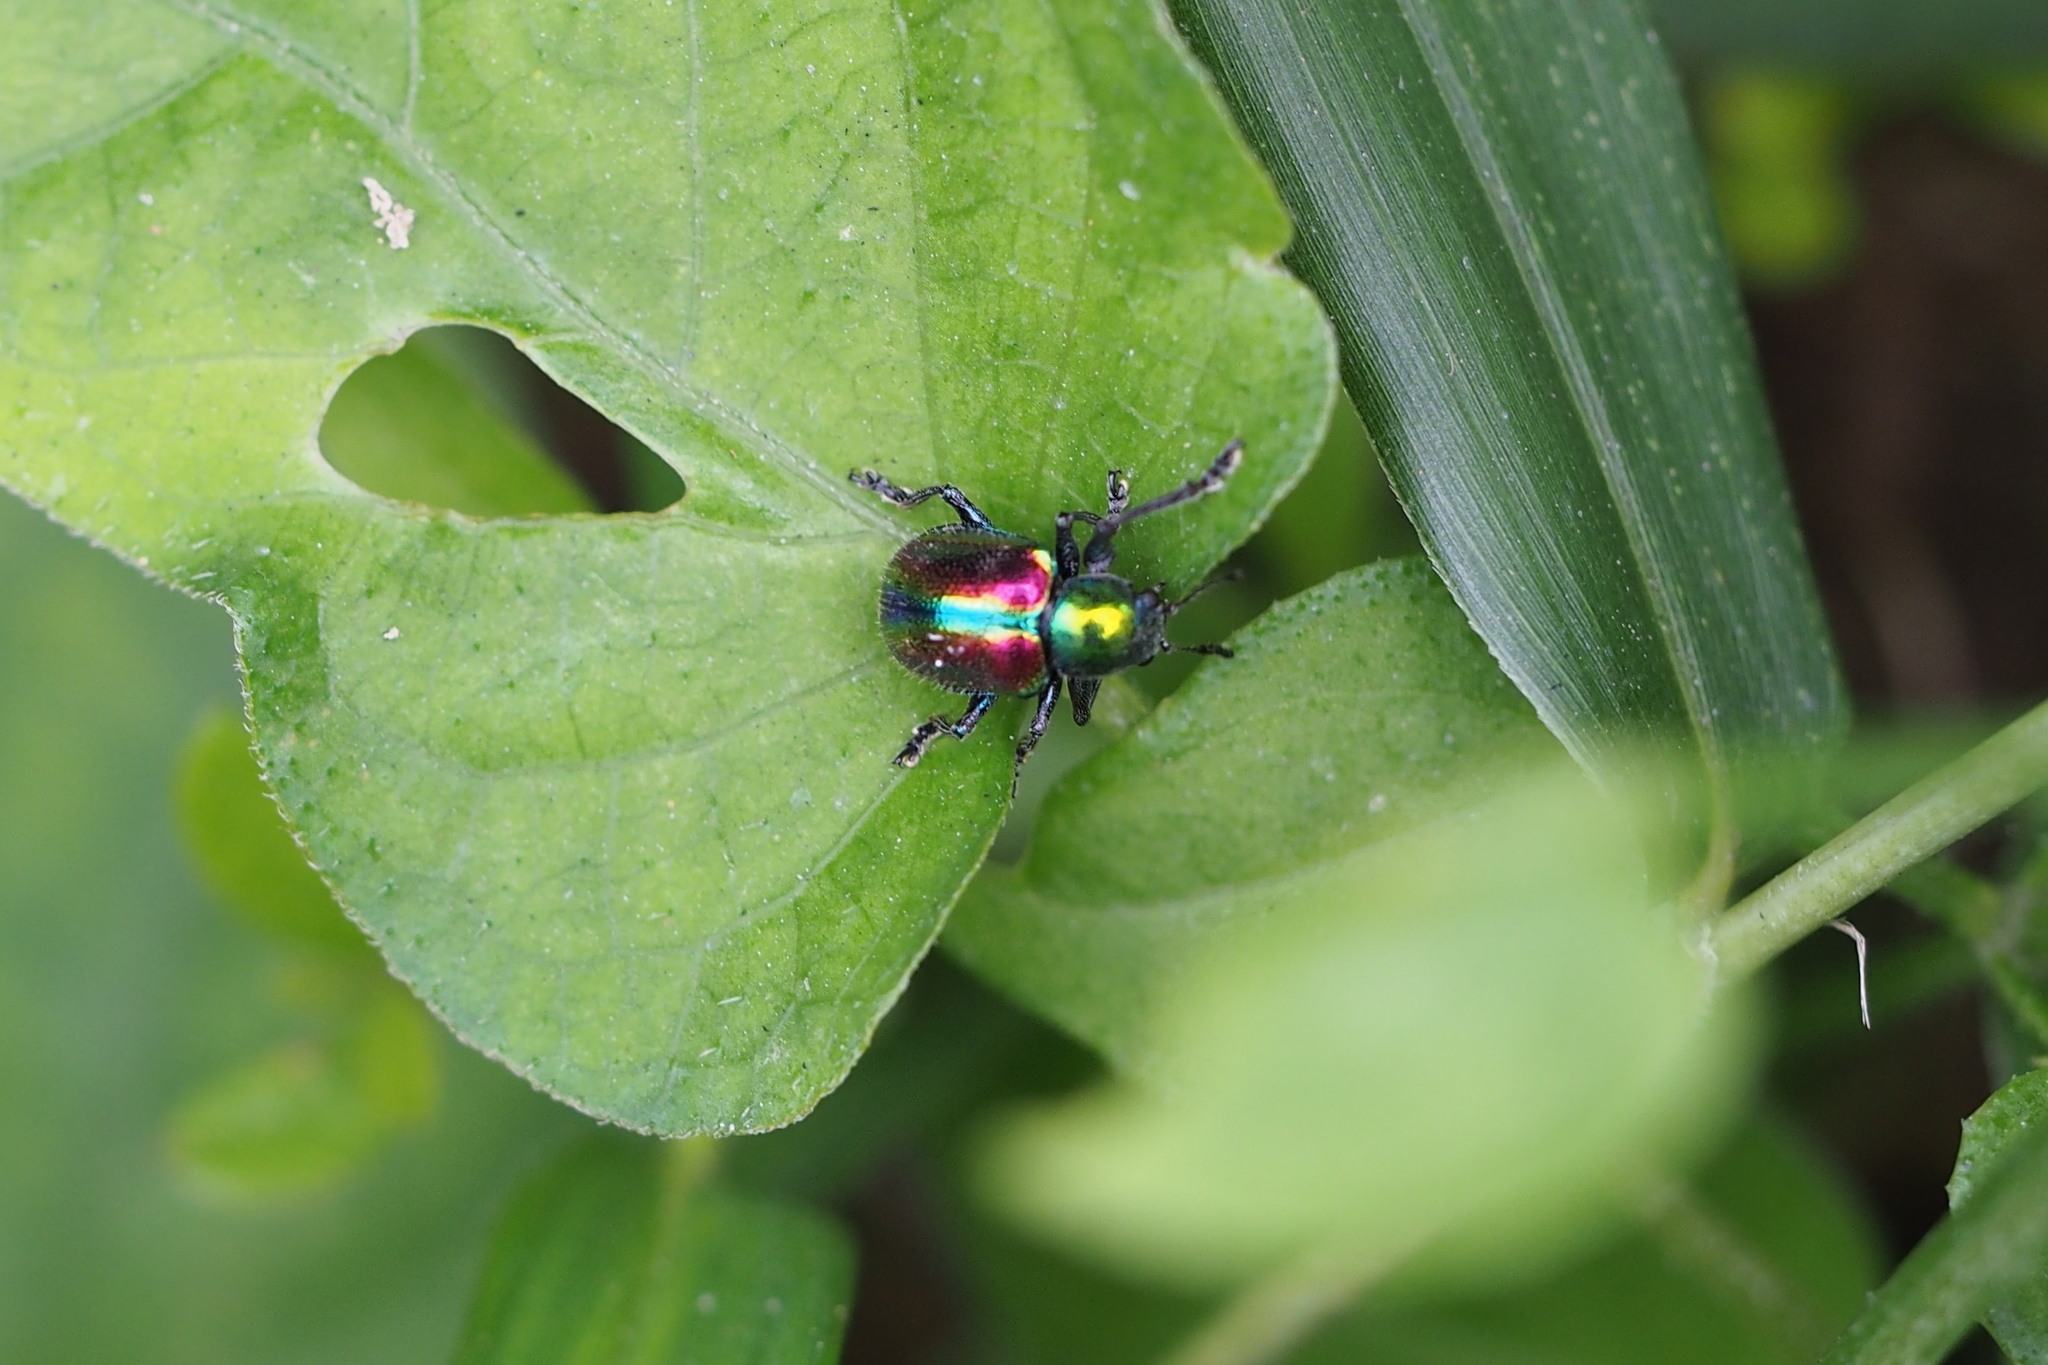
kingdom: Animalia
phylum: Arthropoda
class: Insecta
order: Coleoptera
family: Chrysomelidae
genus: Acrothinium
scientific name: Acrothinium gaschkevitchii
